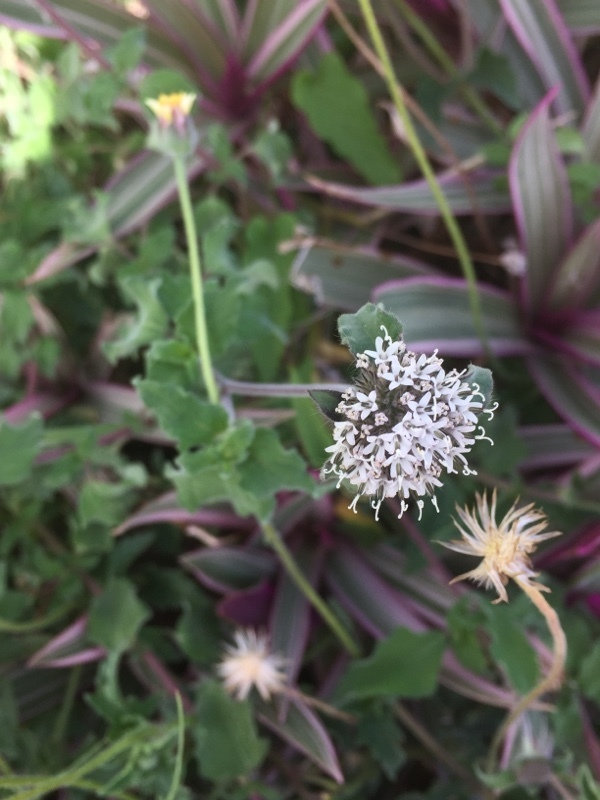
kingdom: Plantae
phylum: Tracheophyta
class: Magnoliopsida
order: Asterales
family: Asteraceae
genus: Lagascea
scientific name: Lagascea mollis
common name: Silkleaf
